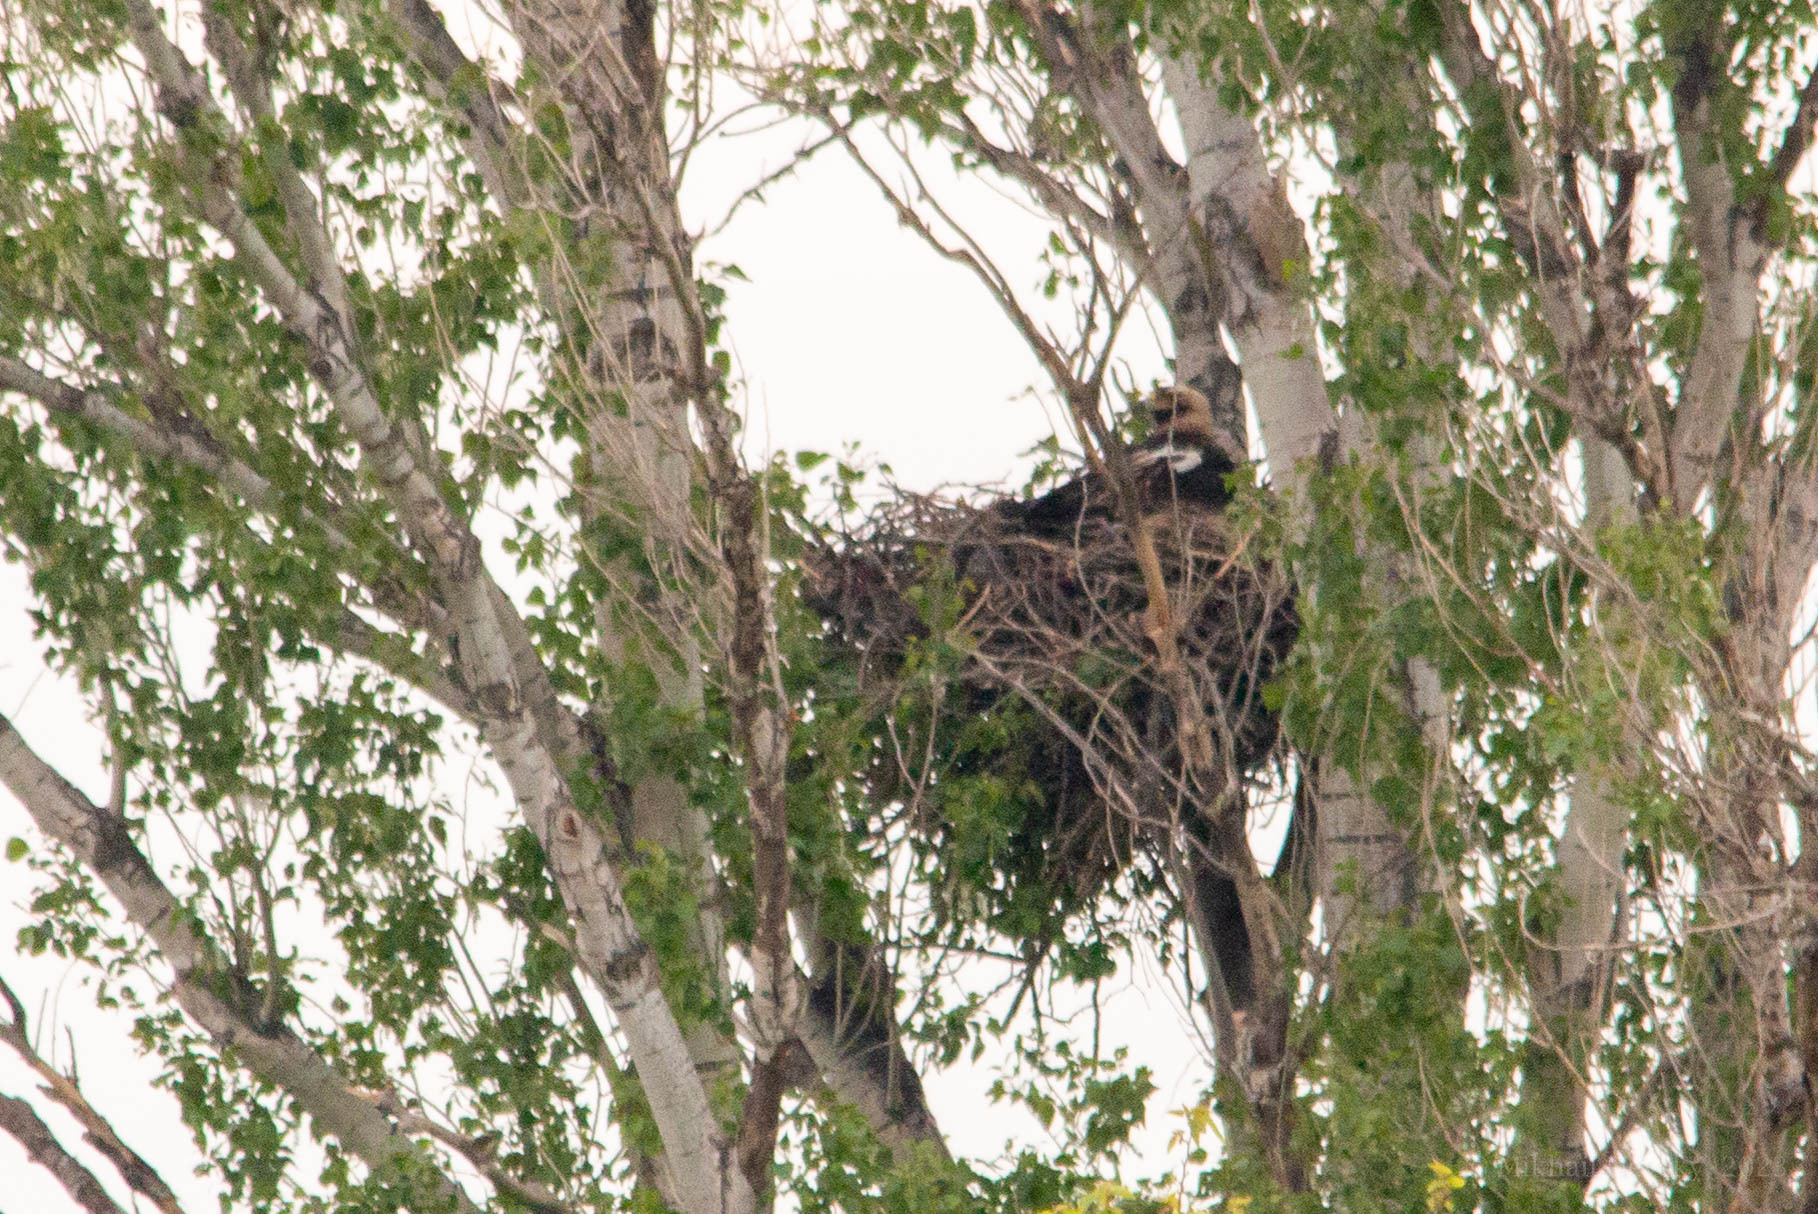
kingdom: Animalia
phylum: Chordata
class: Aves
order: Accipitriformes
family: Accipitridae
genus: Aquila
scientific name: Aquila heliaca
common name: Eastern imperial eagle
